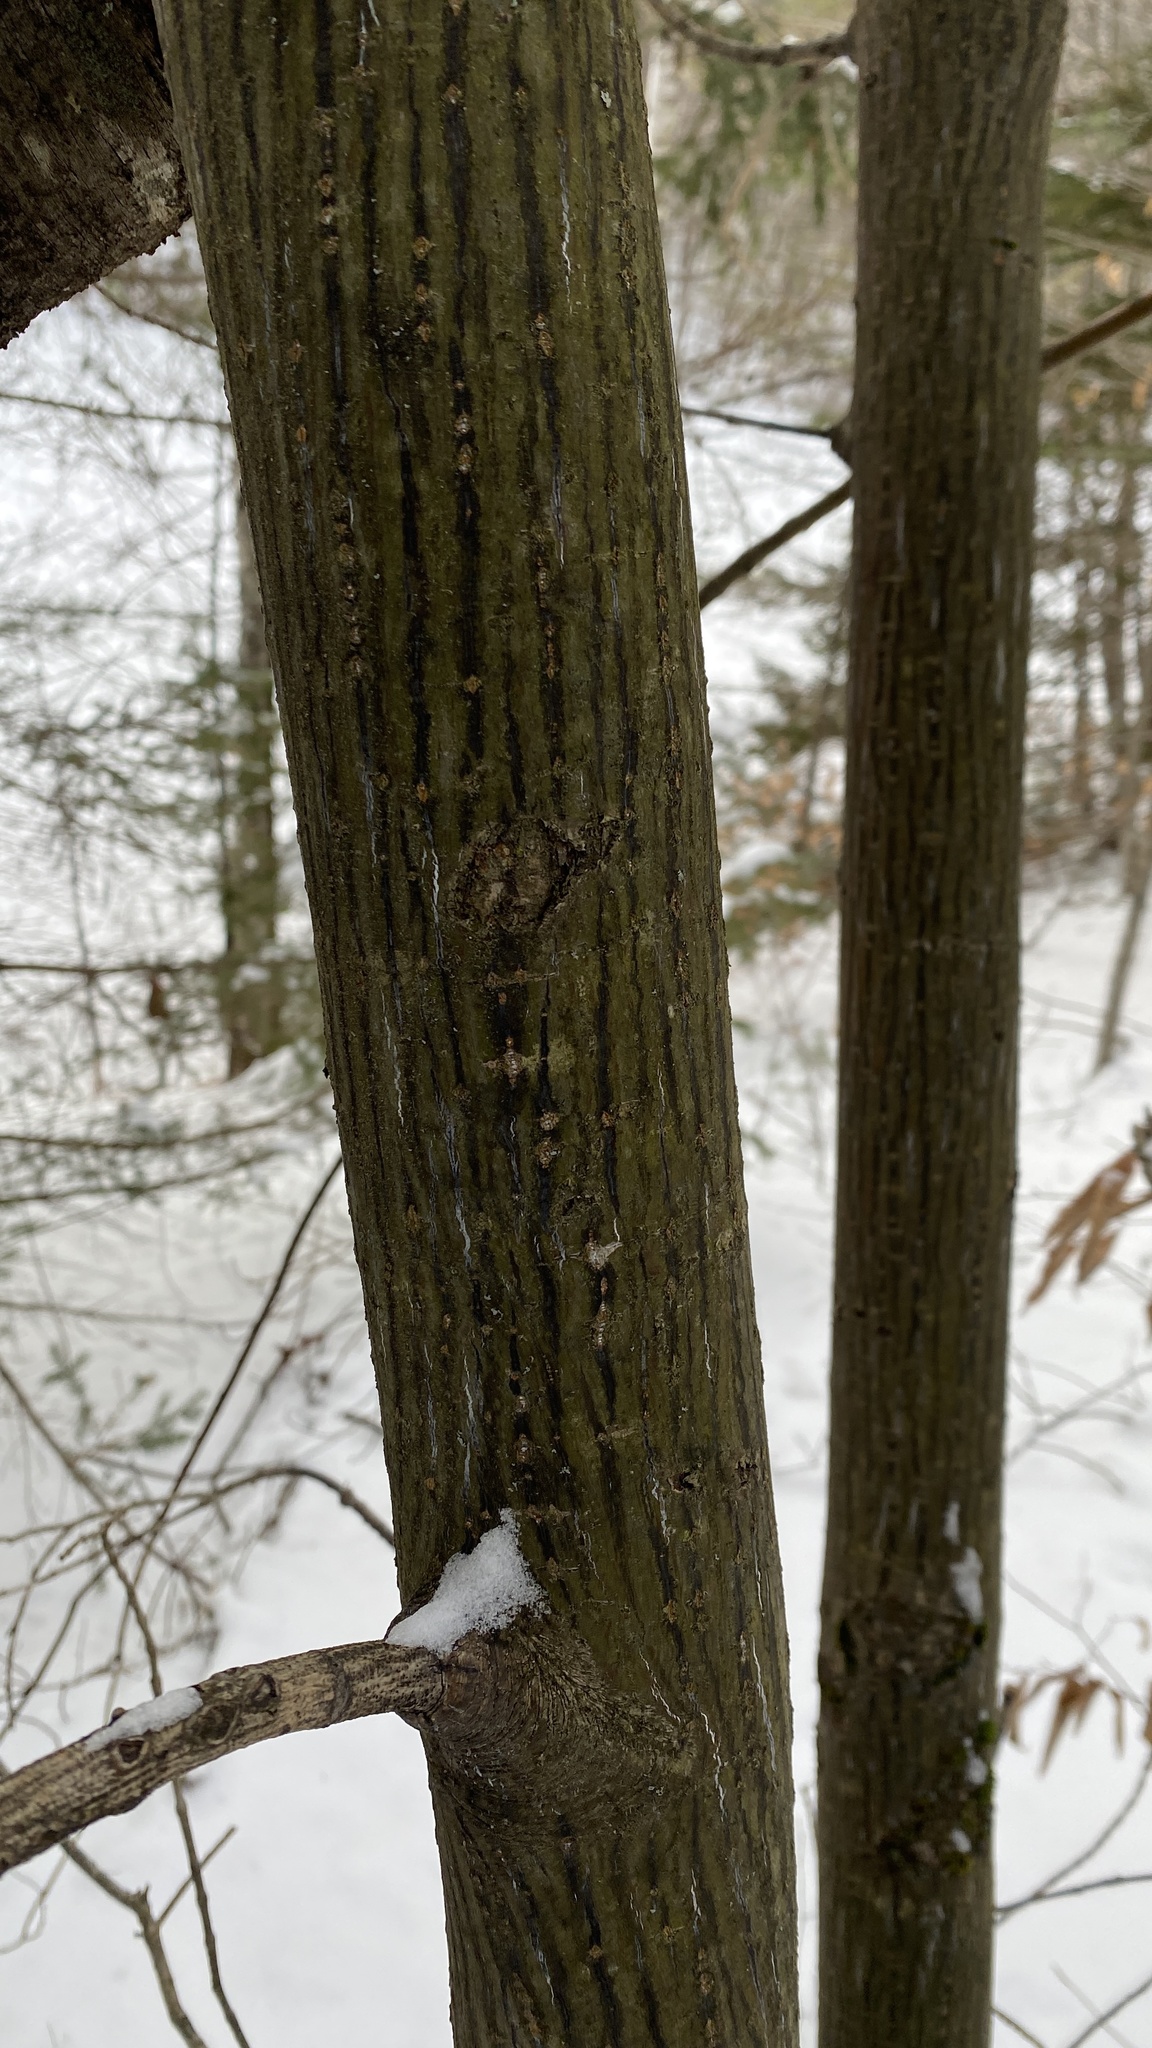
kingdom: Plantae
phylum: Tracheophyta
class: Magnoliopsida
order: Sapindales
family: Sapindaceae
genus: Acer
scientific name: Acer pensylvanicum
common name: Moosewood
